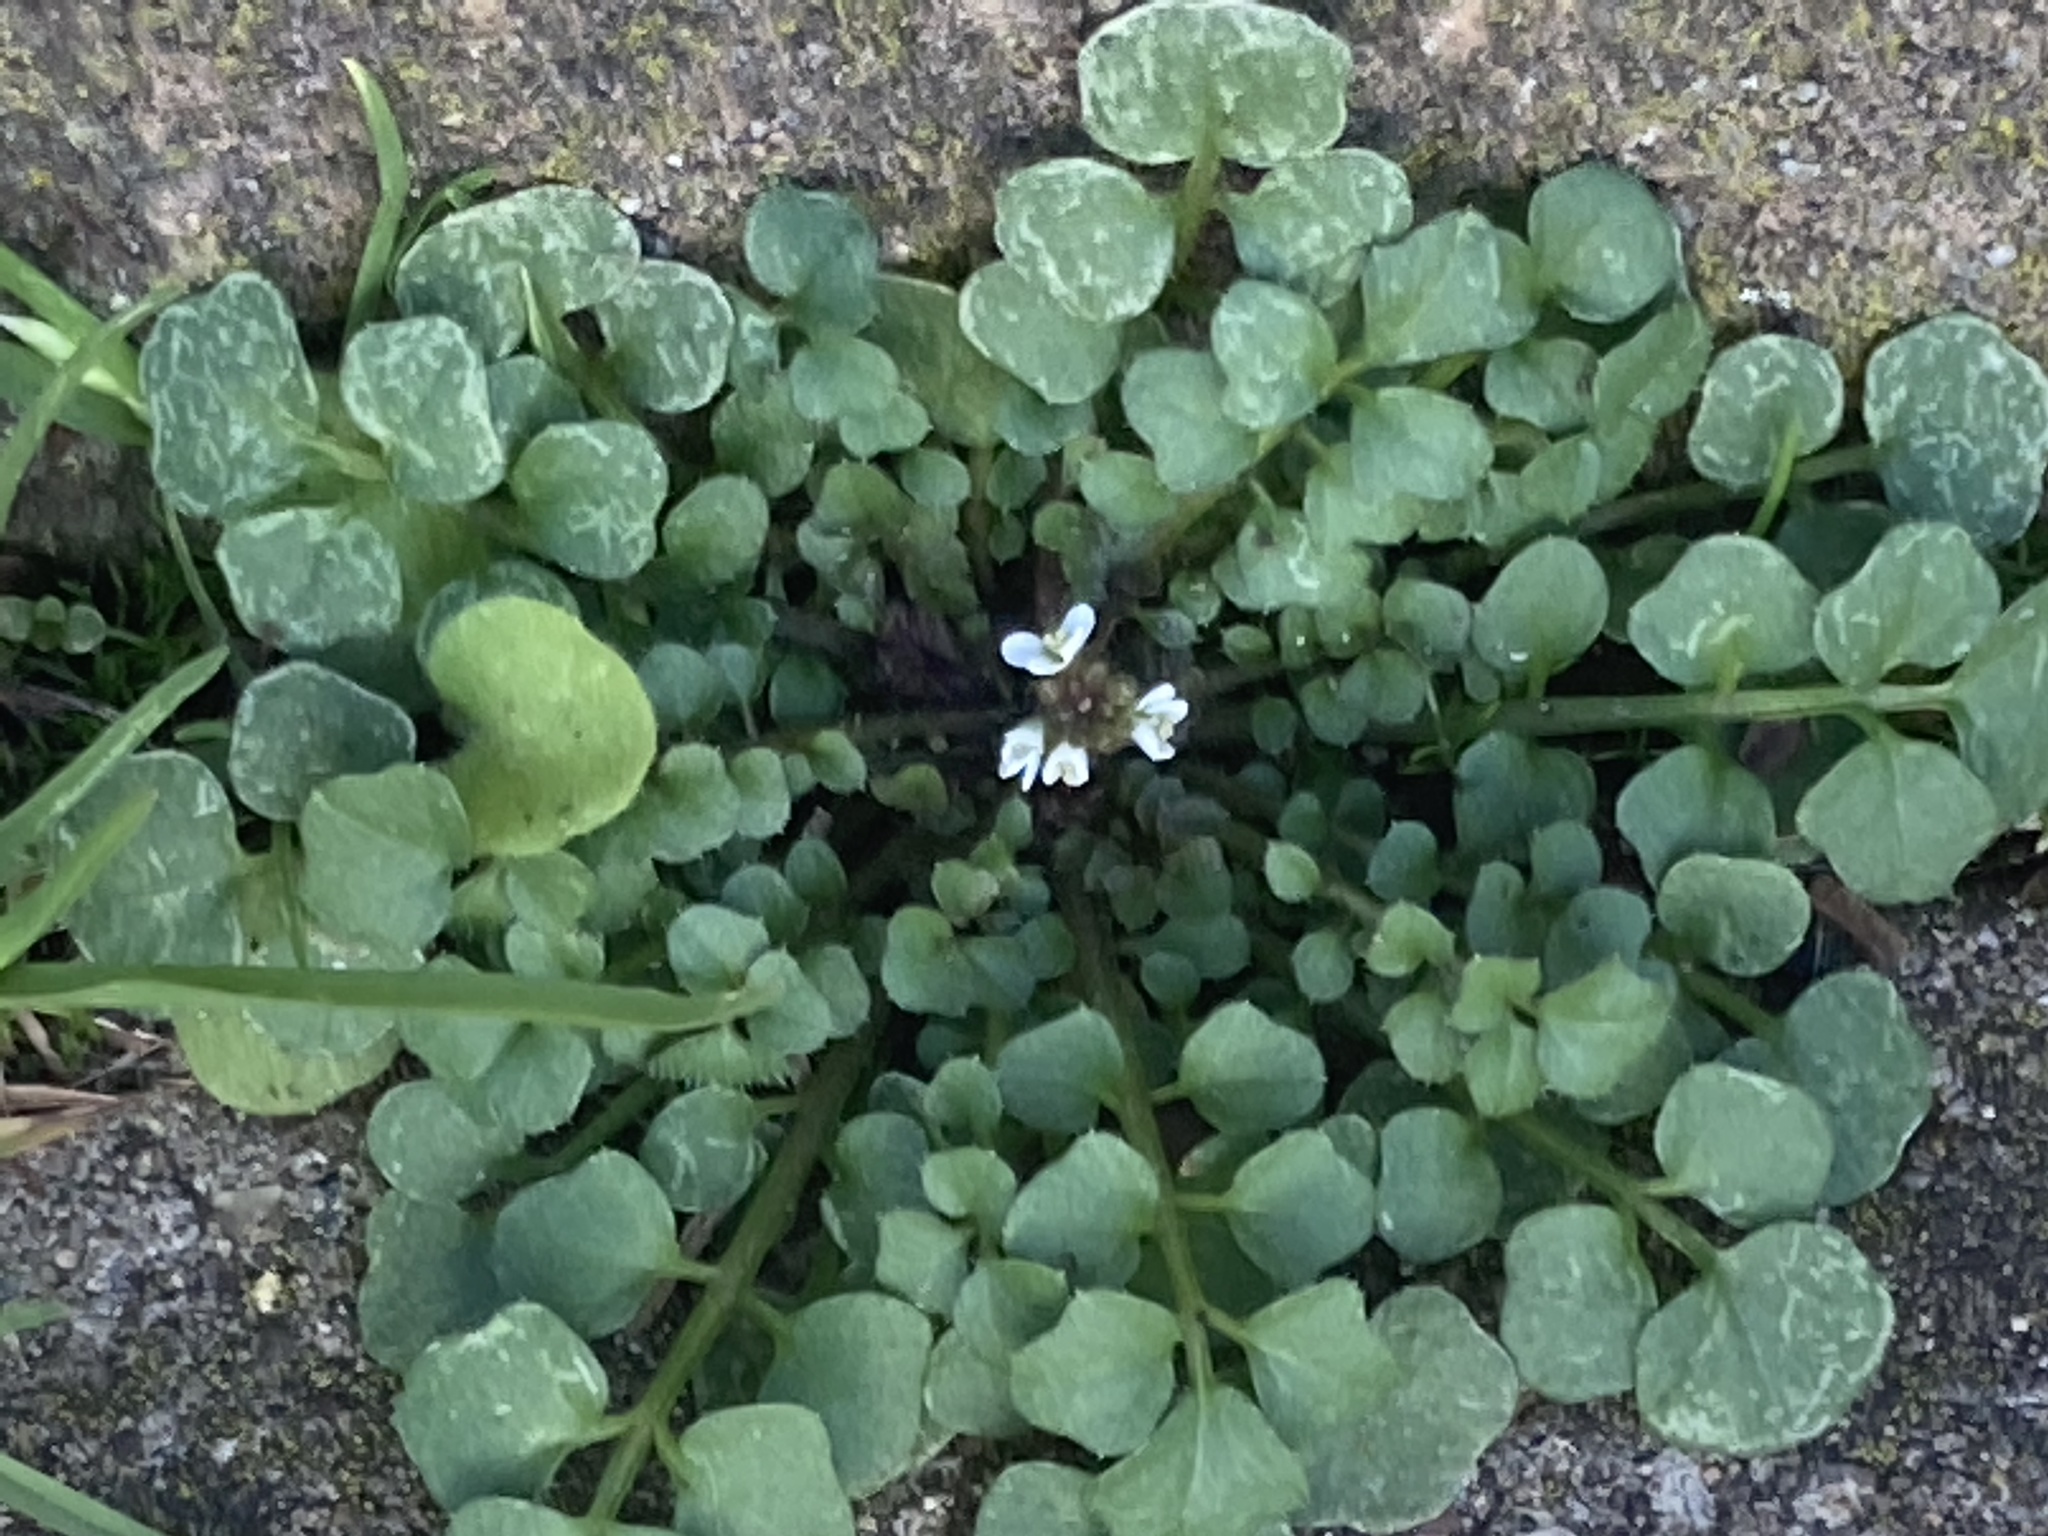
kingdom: Plantae
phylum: Tracheophyta
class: Magnoliopsida
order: Brassicales
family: Brassicaceae
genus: Cardamine
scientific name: Cardamine hirsuta
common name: Hairy bittercress
